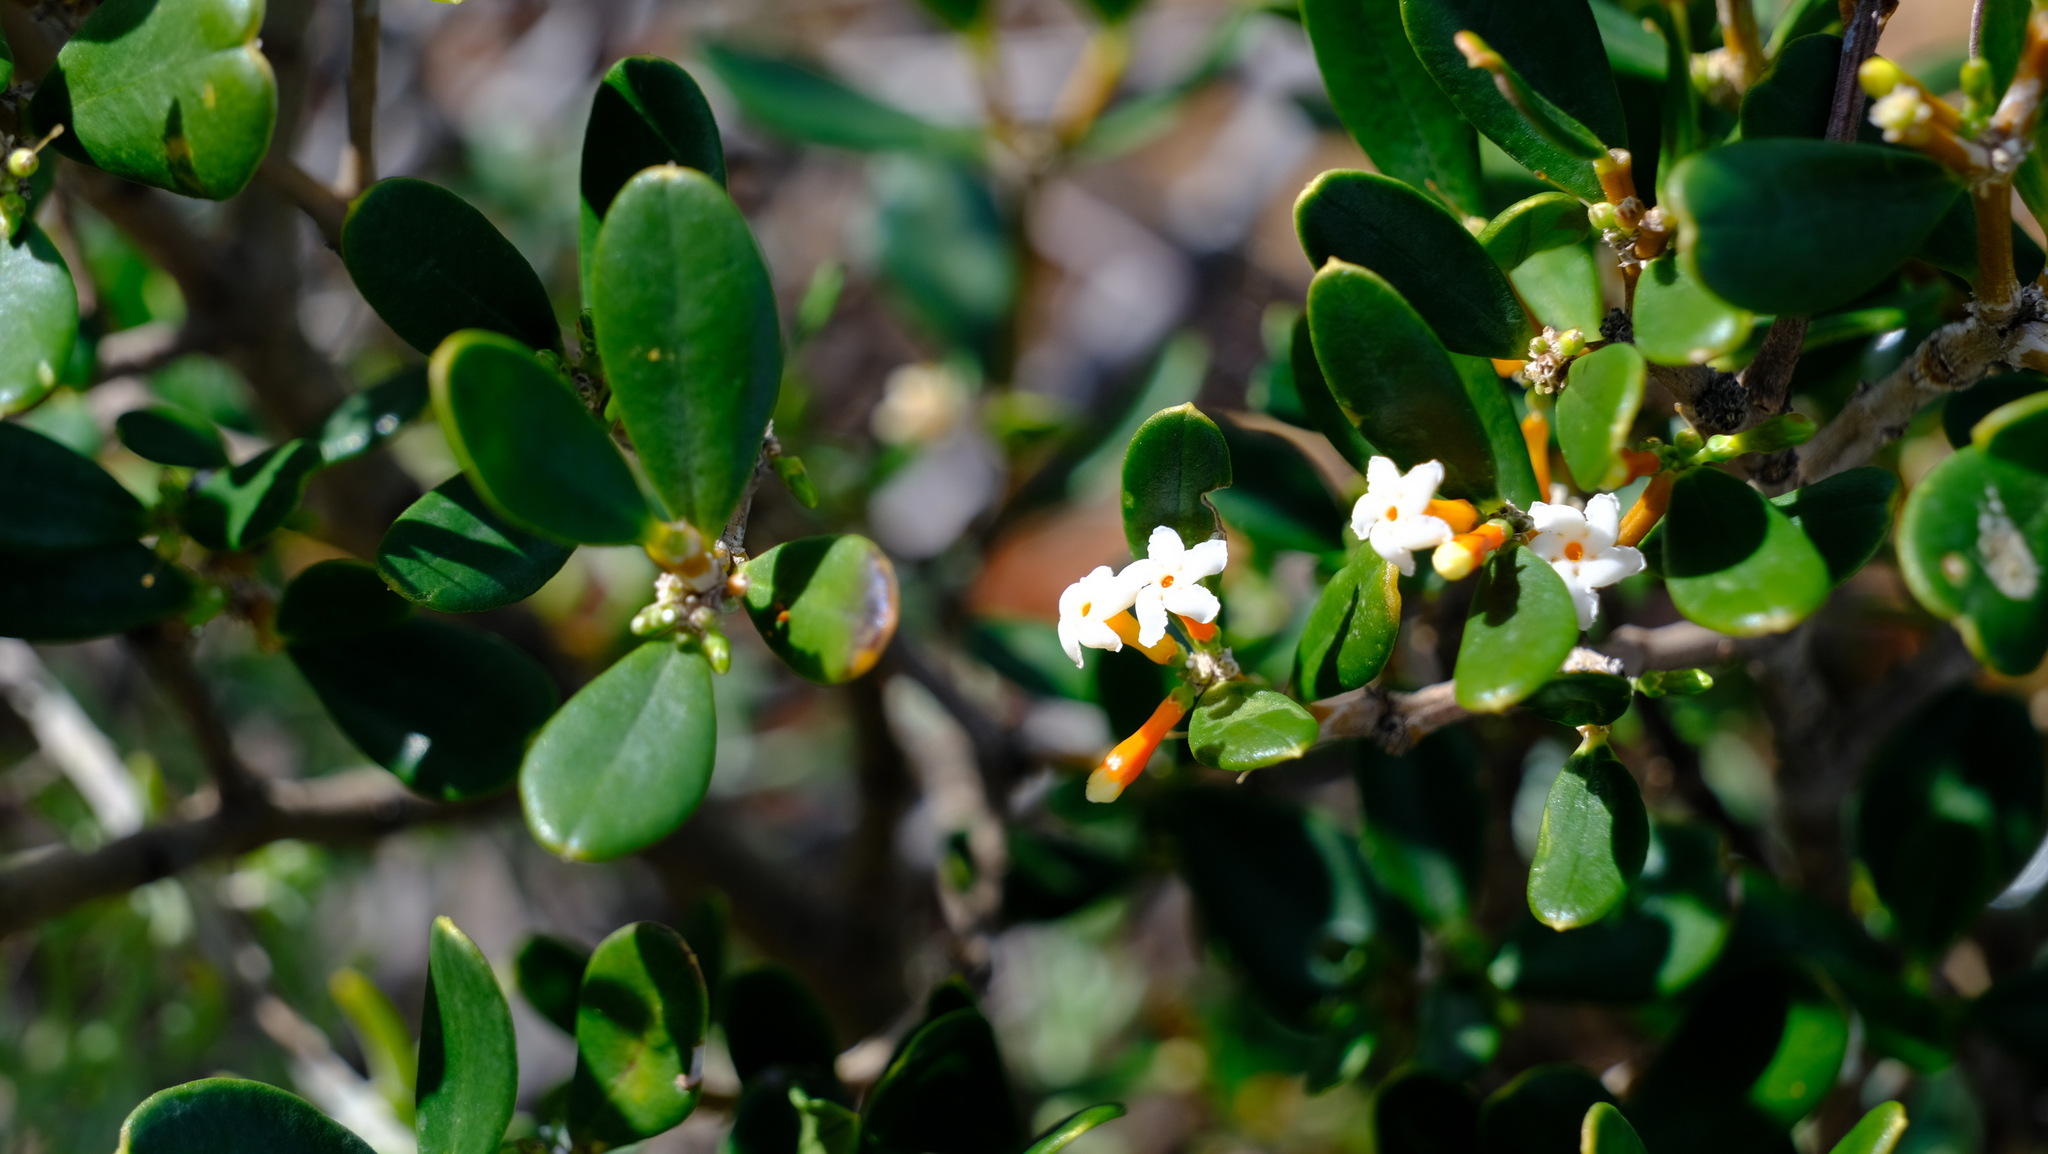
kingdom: Plantae
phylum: Tracheophyta
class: Magnoliopsida
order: Gentianales
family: Apocynaceae
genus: Alyxia
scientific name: Alyxia buxifolia
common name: Dysentery-bush
